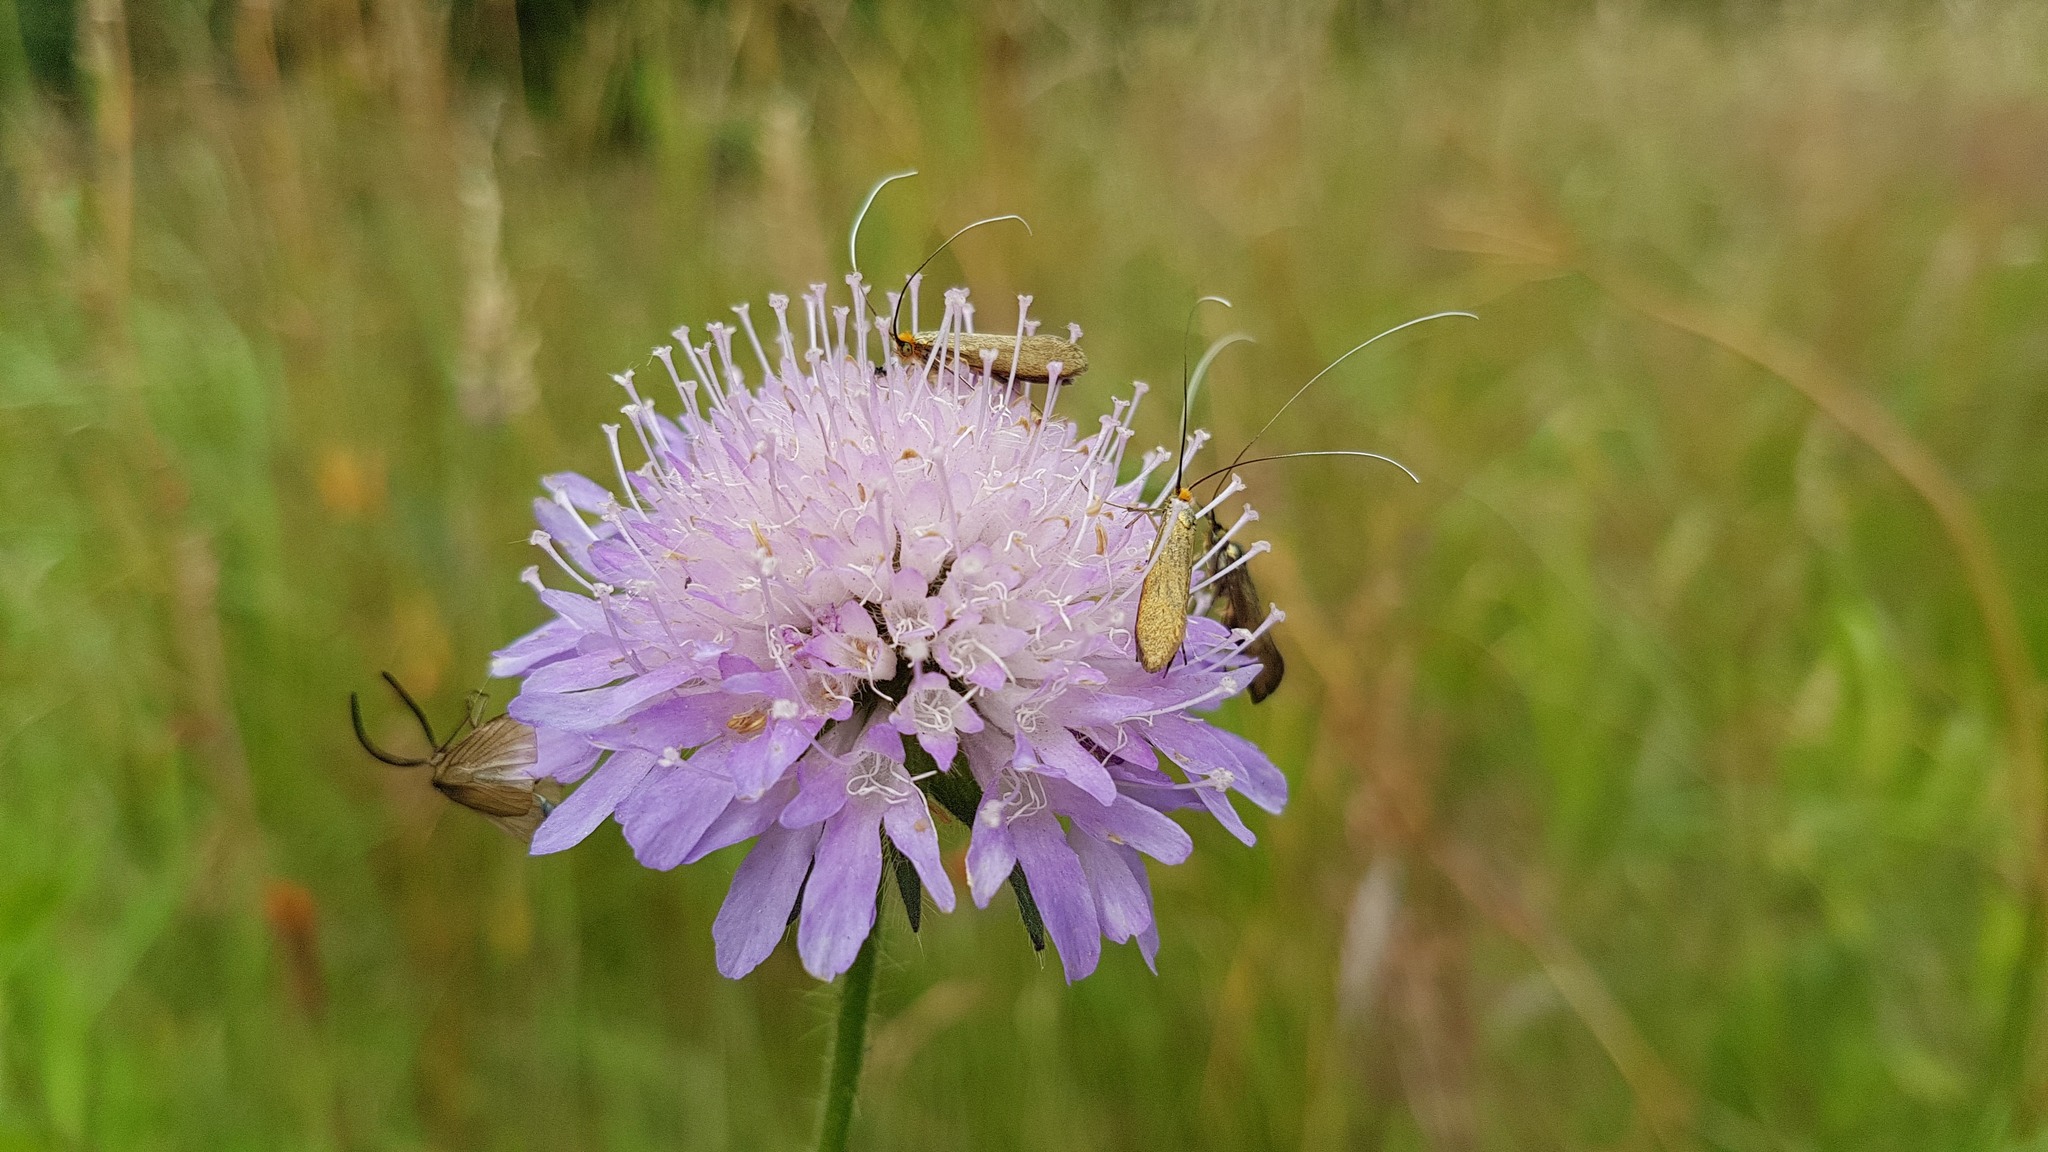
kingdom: Animalia
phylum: Arthropoda
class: Insecta
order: Lepidoptera
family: Adelidae
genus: Nemophora
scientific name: Nemophora metallica
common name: Brassy long-horn
